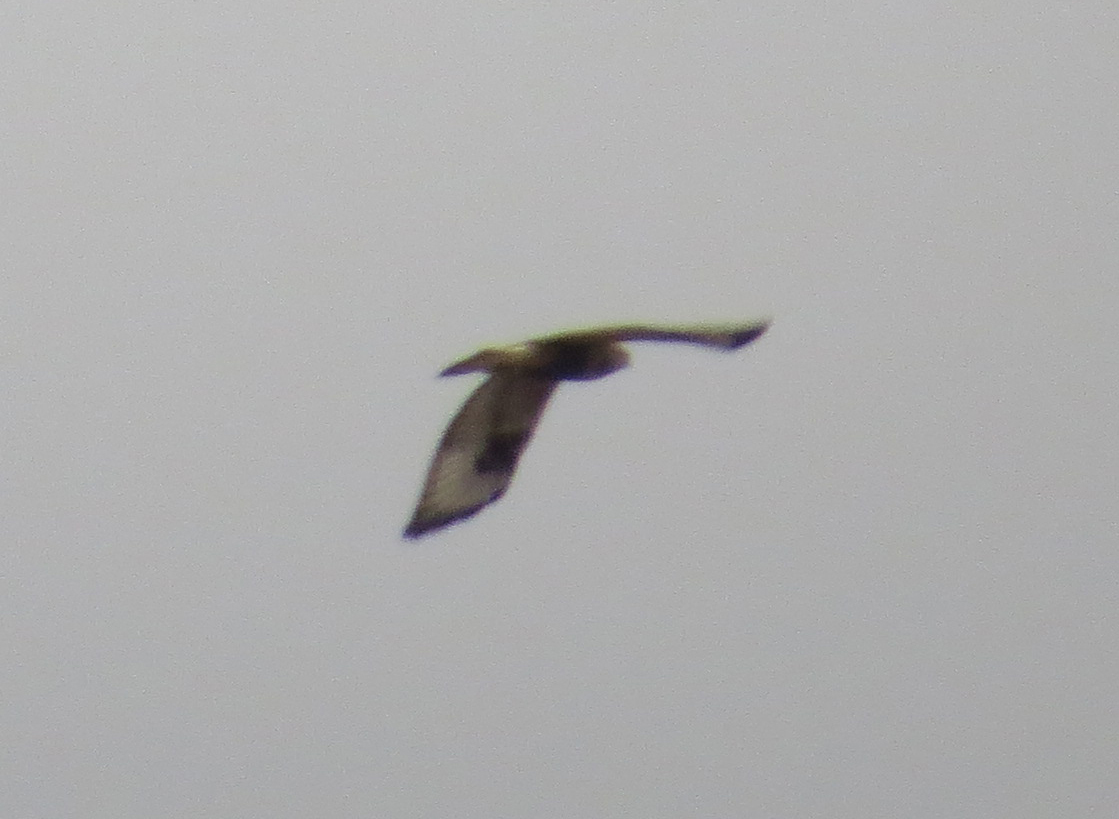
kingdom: Animalia
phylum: Chordata
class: Aves
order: Accipitriformes
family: Accipitridae
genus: Buteo
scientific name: Buteo lagopus
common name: Rough-legged buzzard
